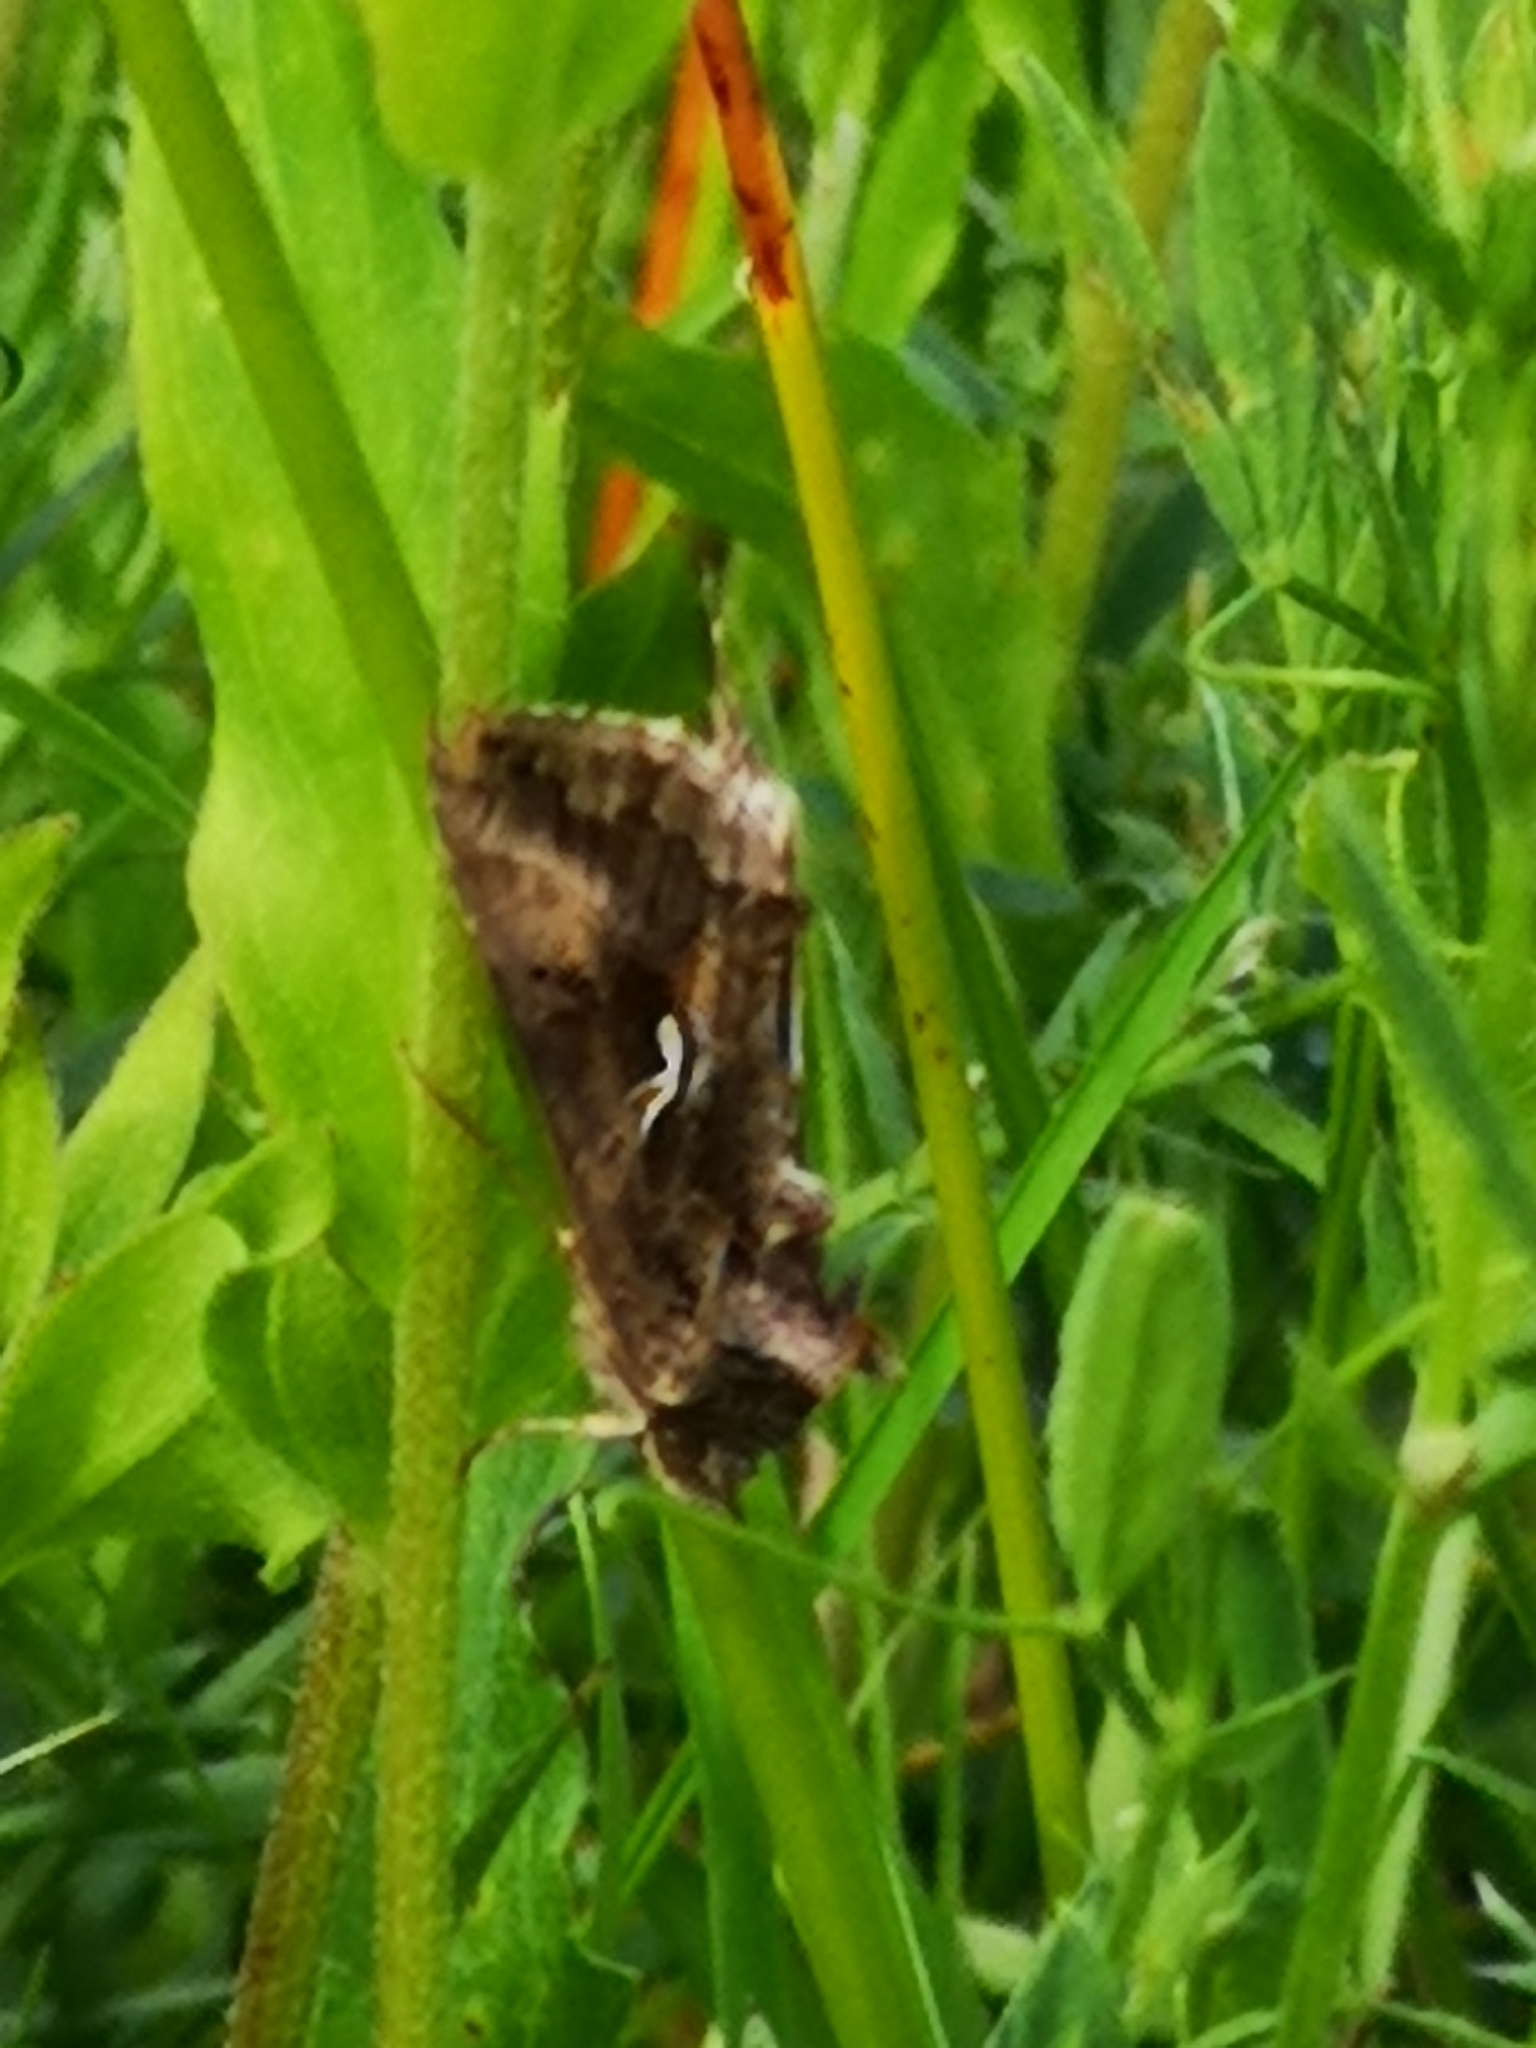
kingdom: Animalia
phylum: Arthropoda
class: Insecta
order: Lepidoptera
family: Noctuidae
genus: Autographa
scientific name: Autographa gamma
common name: Silver y
